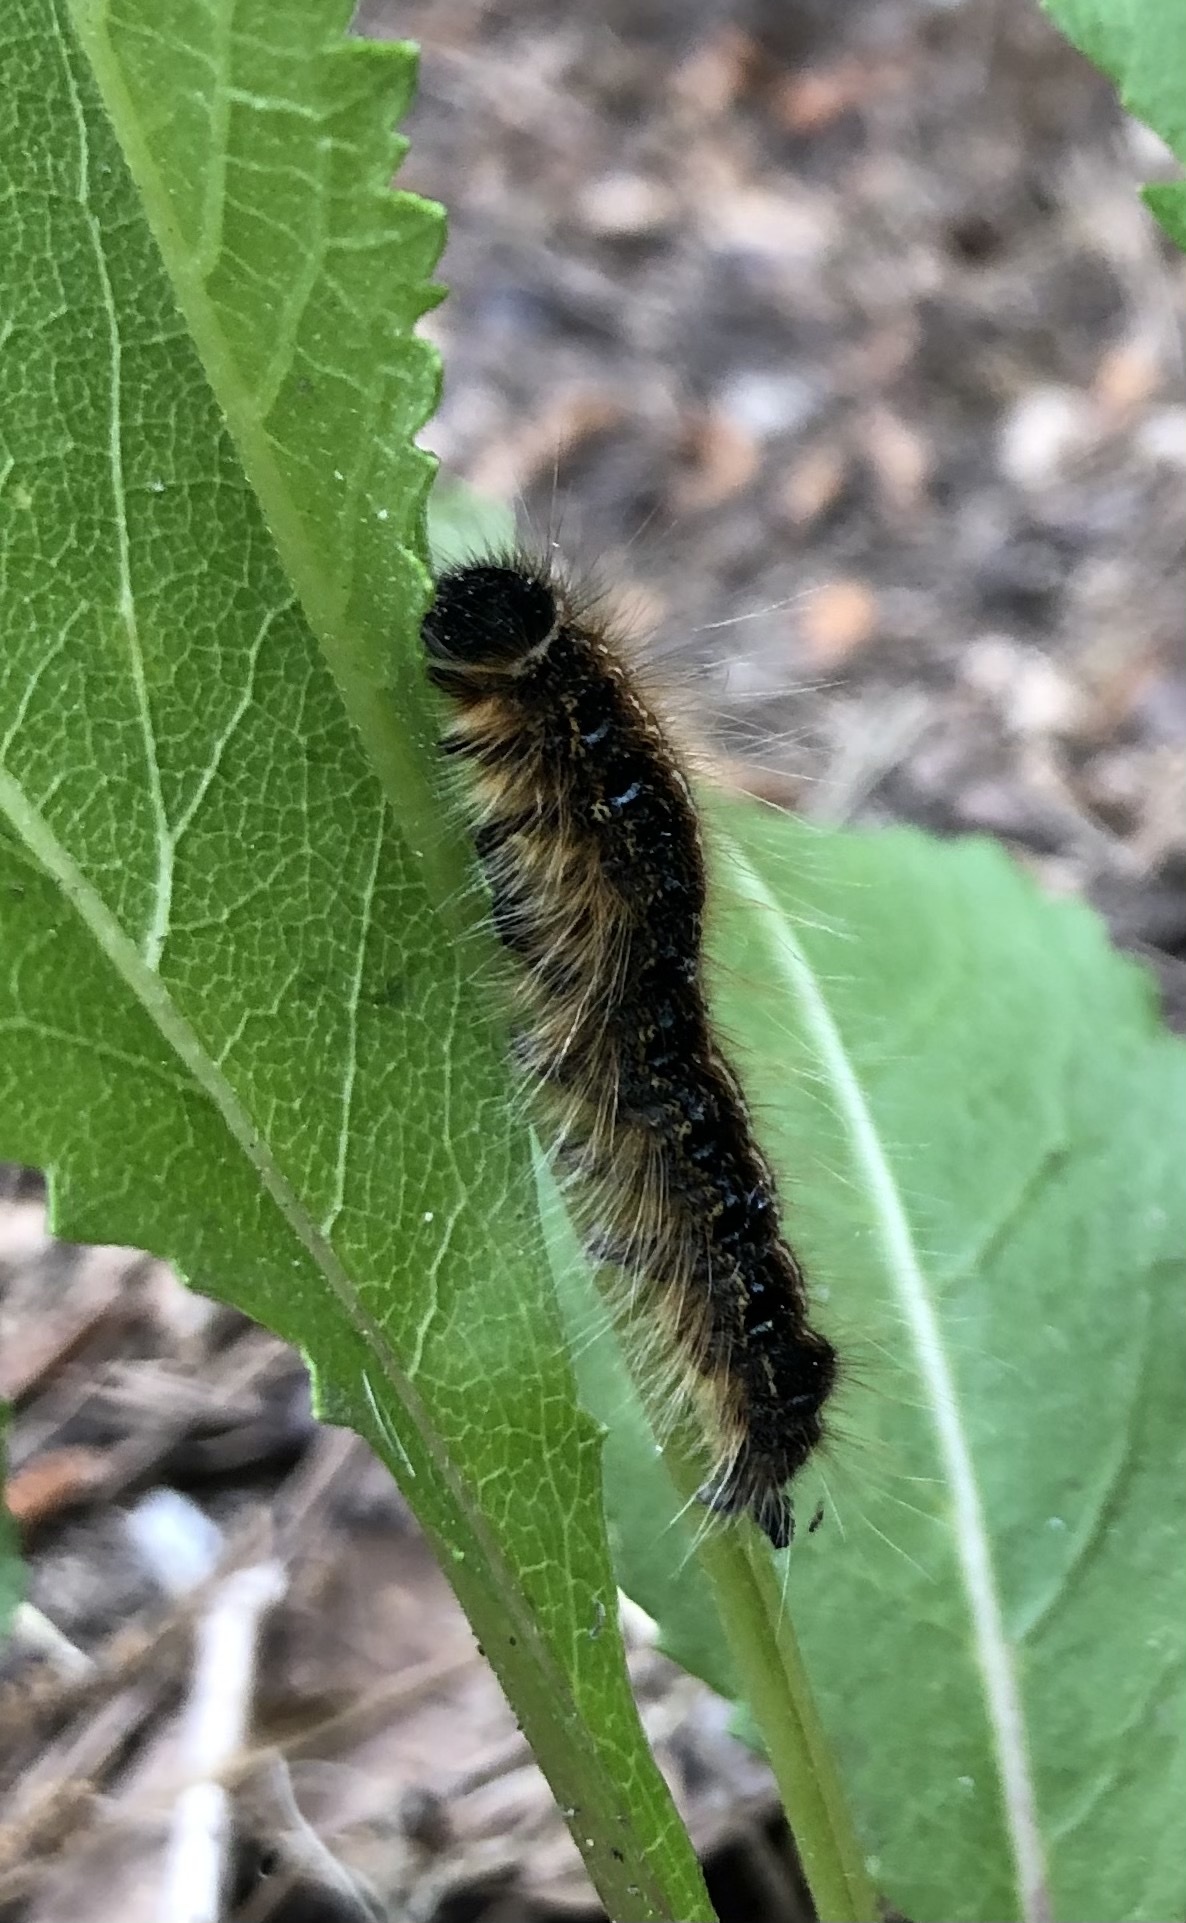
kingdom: Animalia
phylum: Arthropoda
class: Insecta
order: Lepidoptera
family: Lasiocampidae
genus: Malacosoma
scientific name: Malacosoma americana
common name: Eastern tent caterpillar moth
